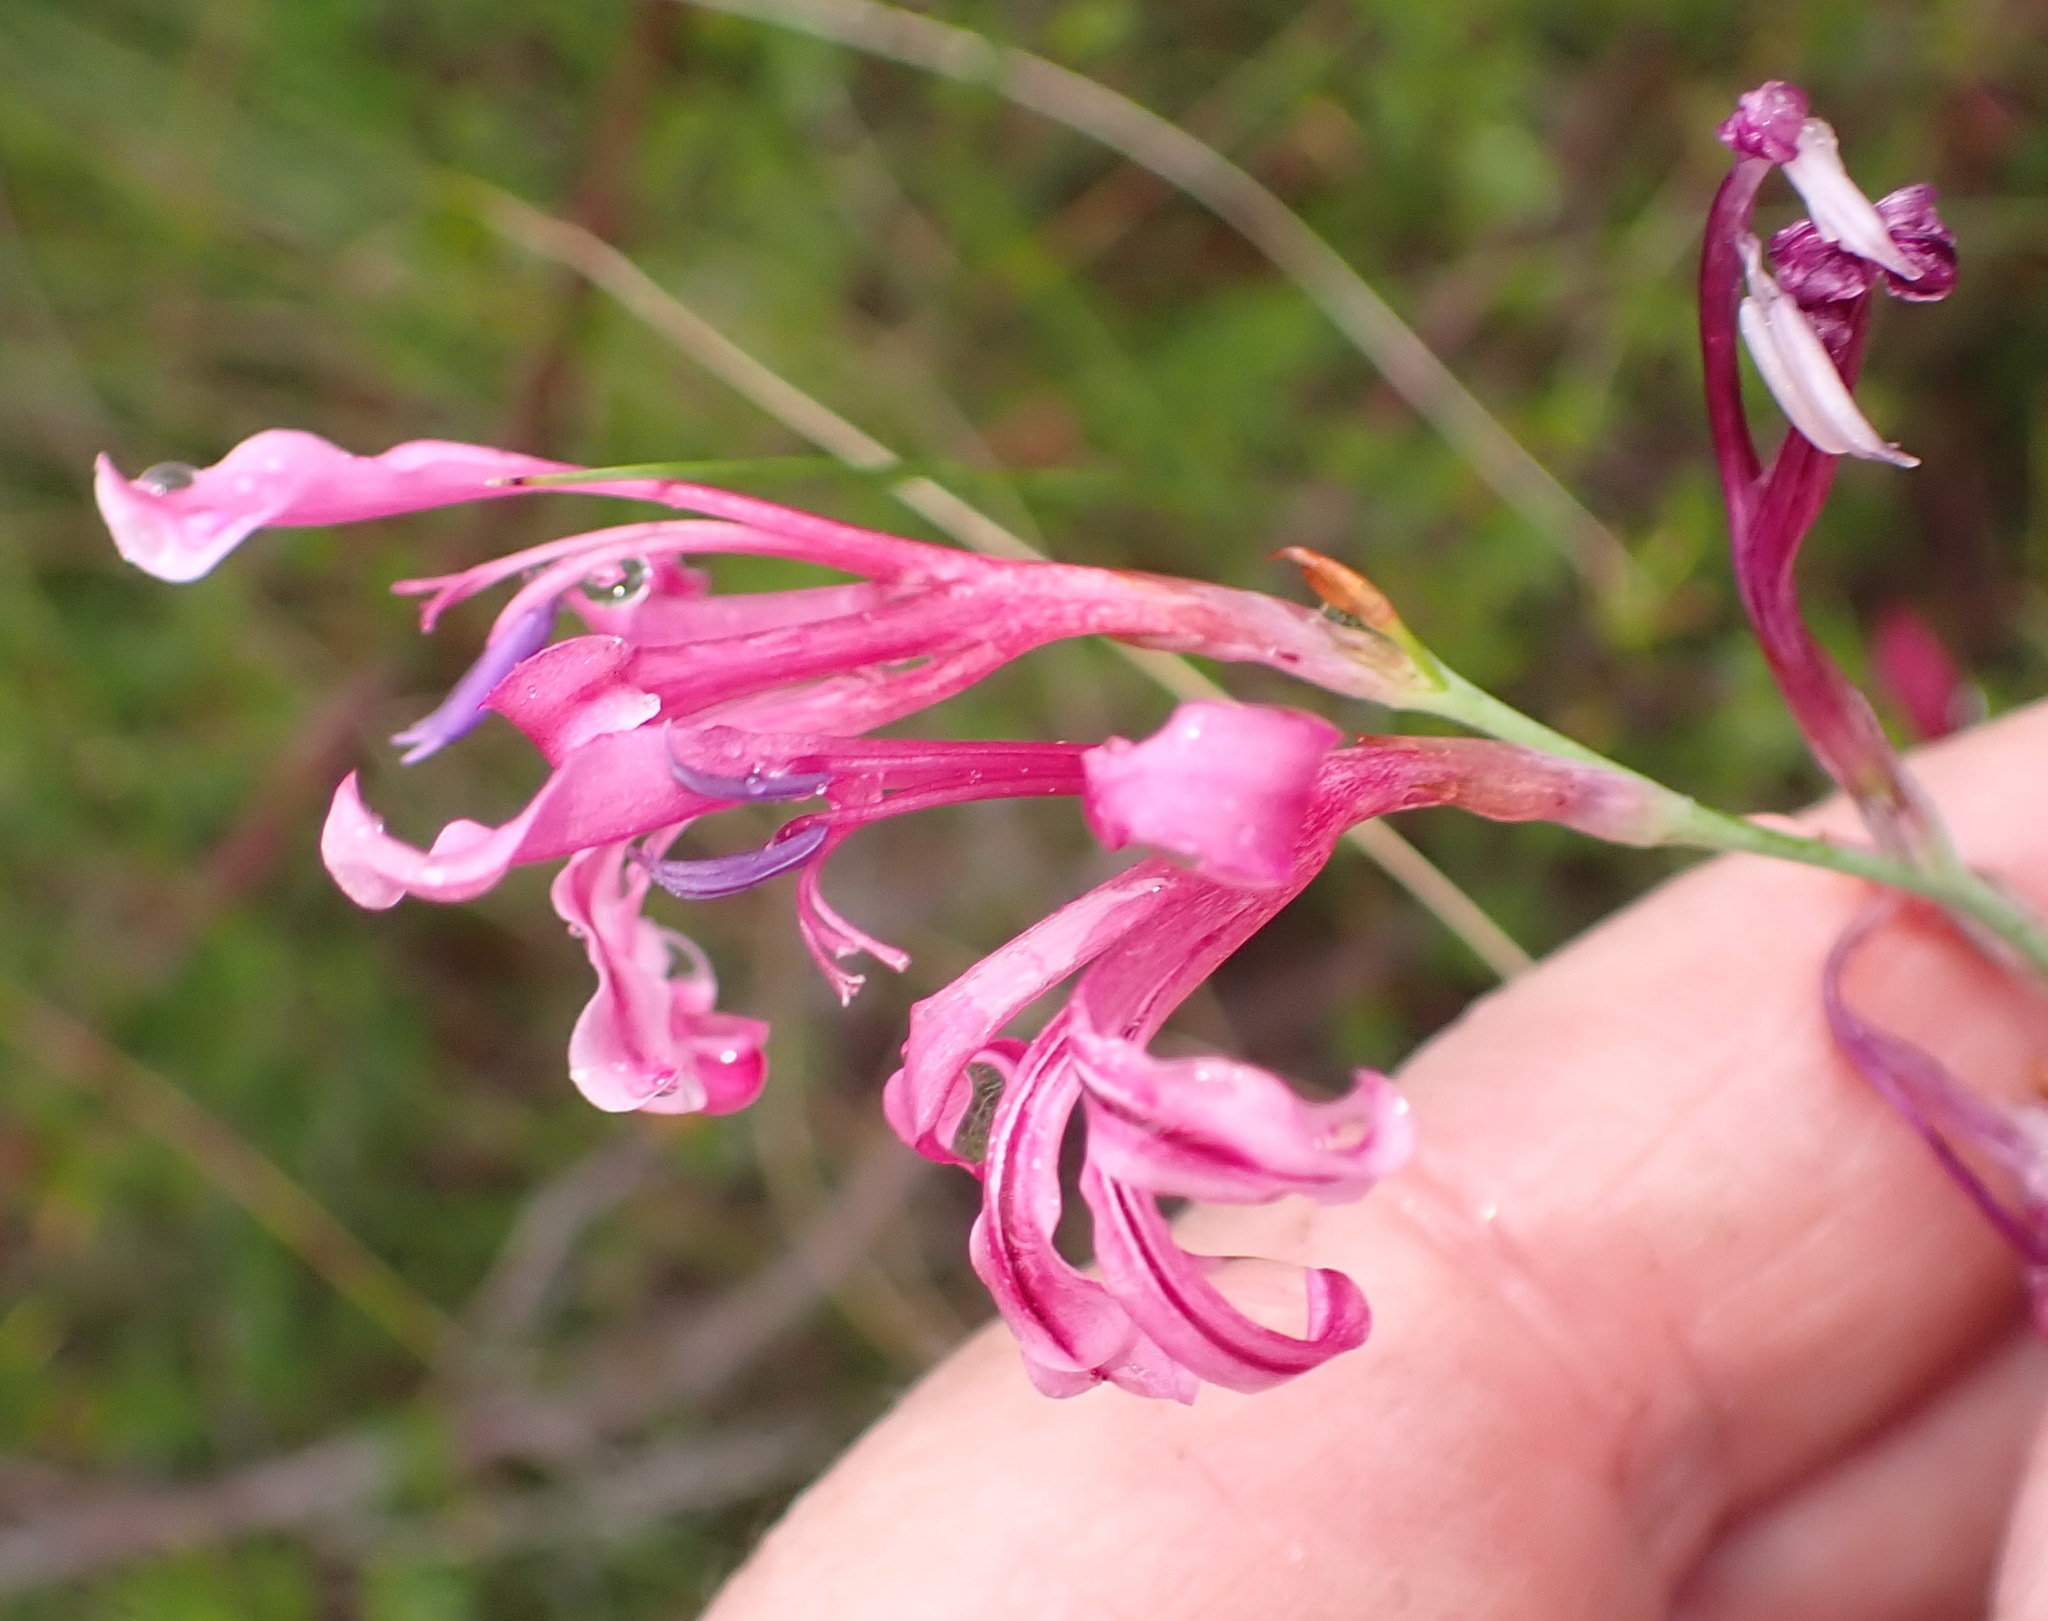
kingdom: Plantae
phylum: Tracheophyta
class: Liliopsida
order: Asparagales
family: Iridaceae
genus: Tritoniopsis
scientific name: Tritoniopsis ramosa
